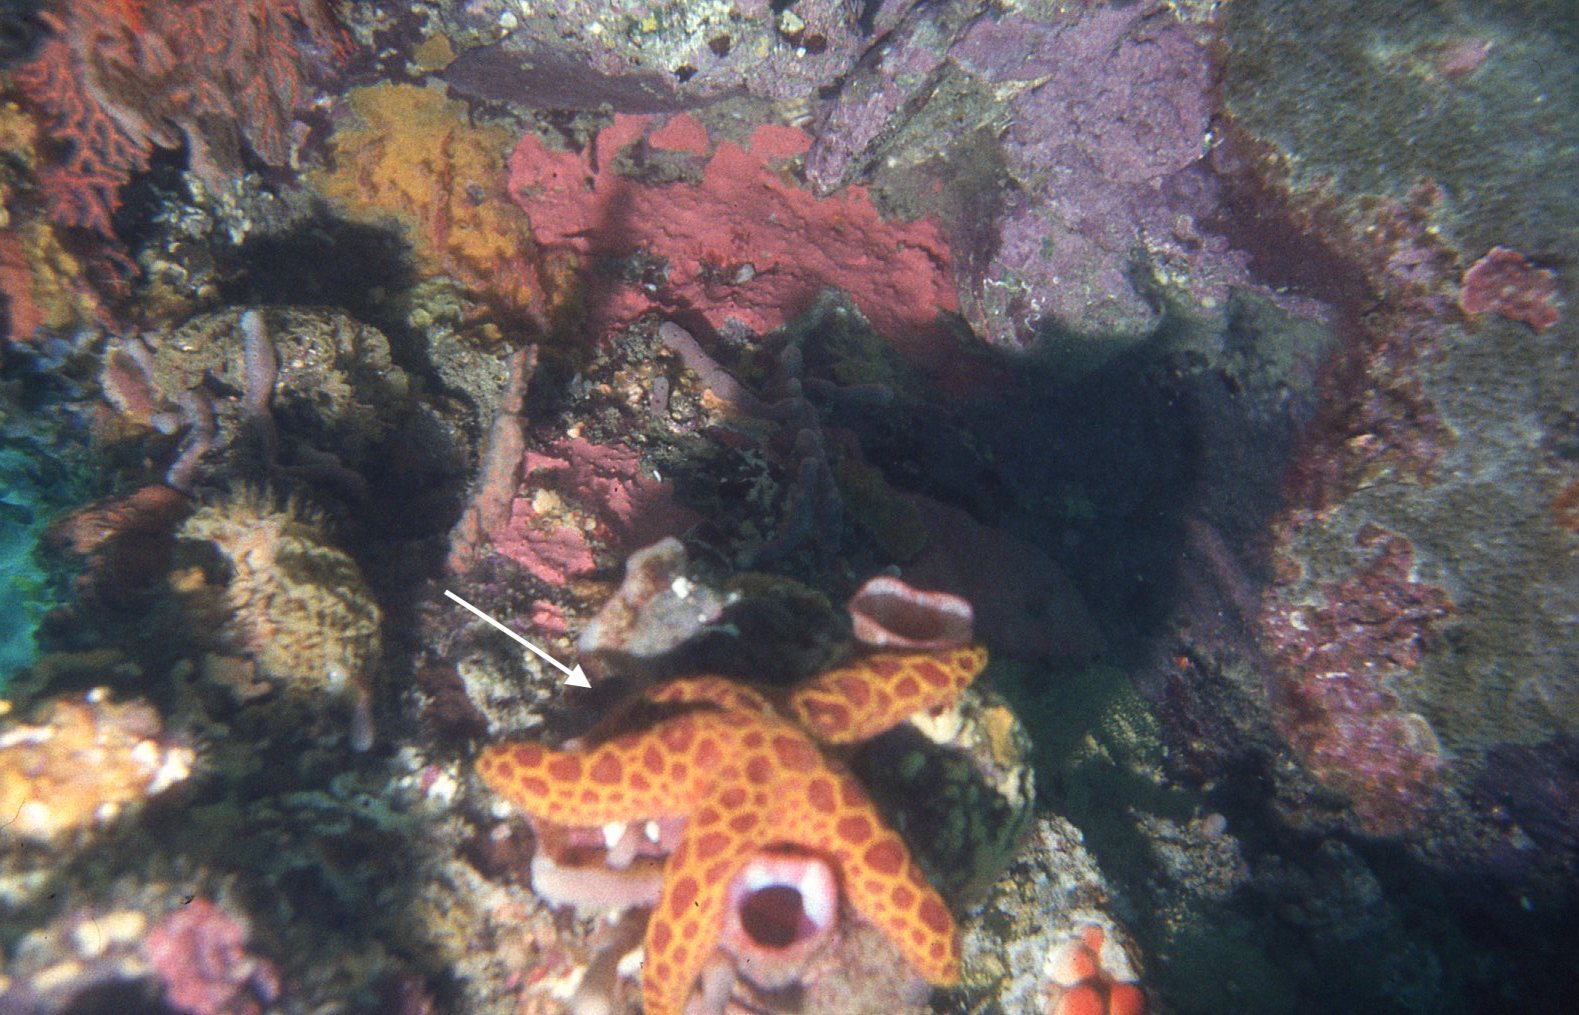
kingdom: Animalia
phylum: Echinodermata
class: Asteroidea
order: Spinulosida
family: Echinasteridae
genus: Plectaster
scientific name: Plectaster decanus
